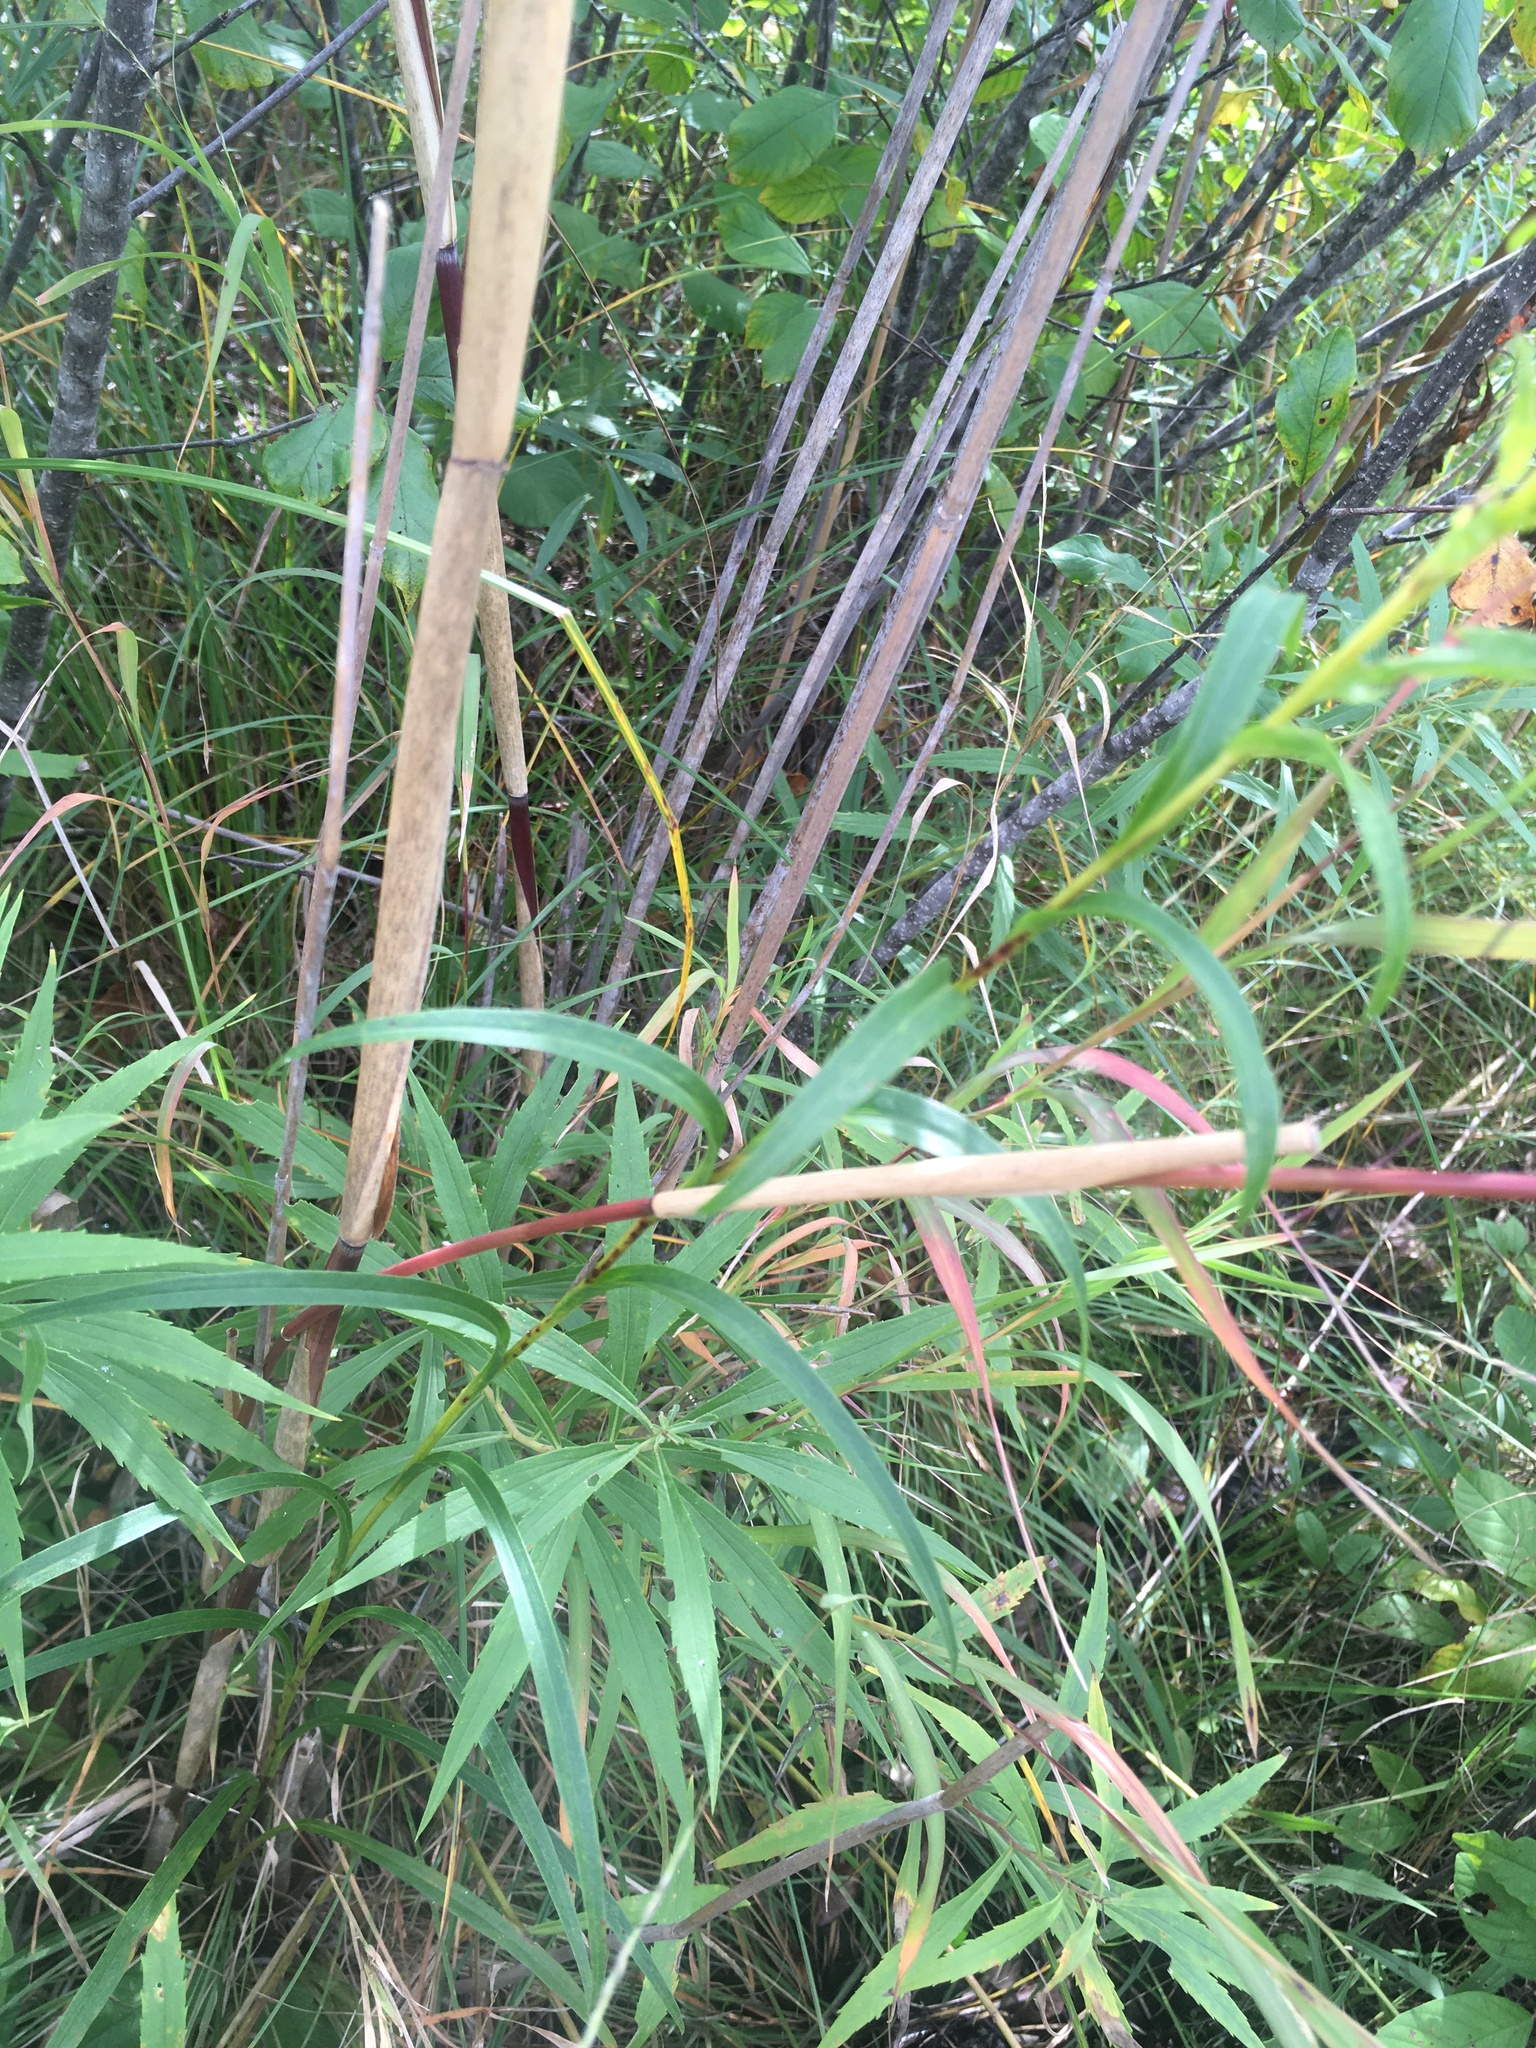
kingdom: Plantae
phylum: Tracheophyta
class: Magnoliopsida
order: Asterales
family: Asteraceae
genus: Solidago
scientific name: Solidago riddellii
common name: Riddell's goldenrod
